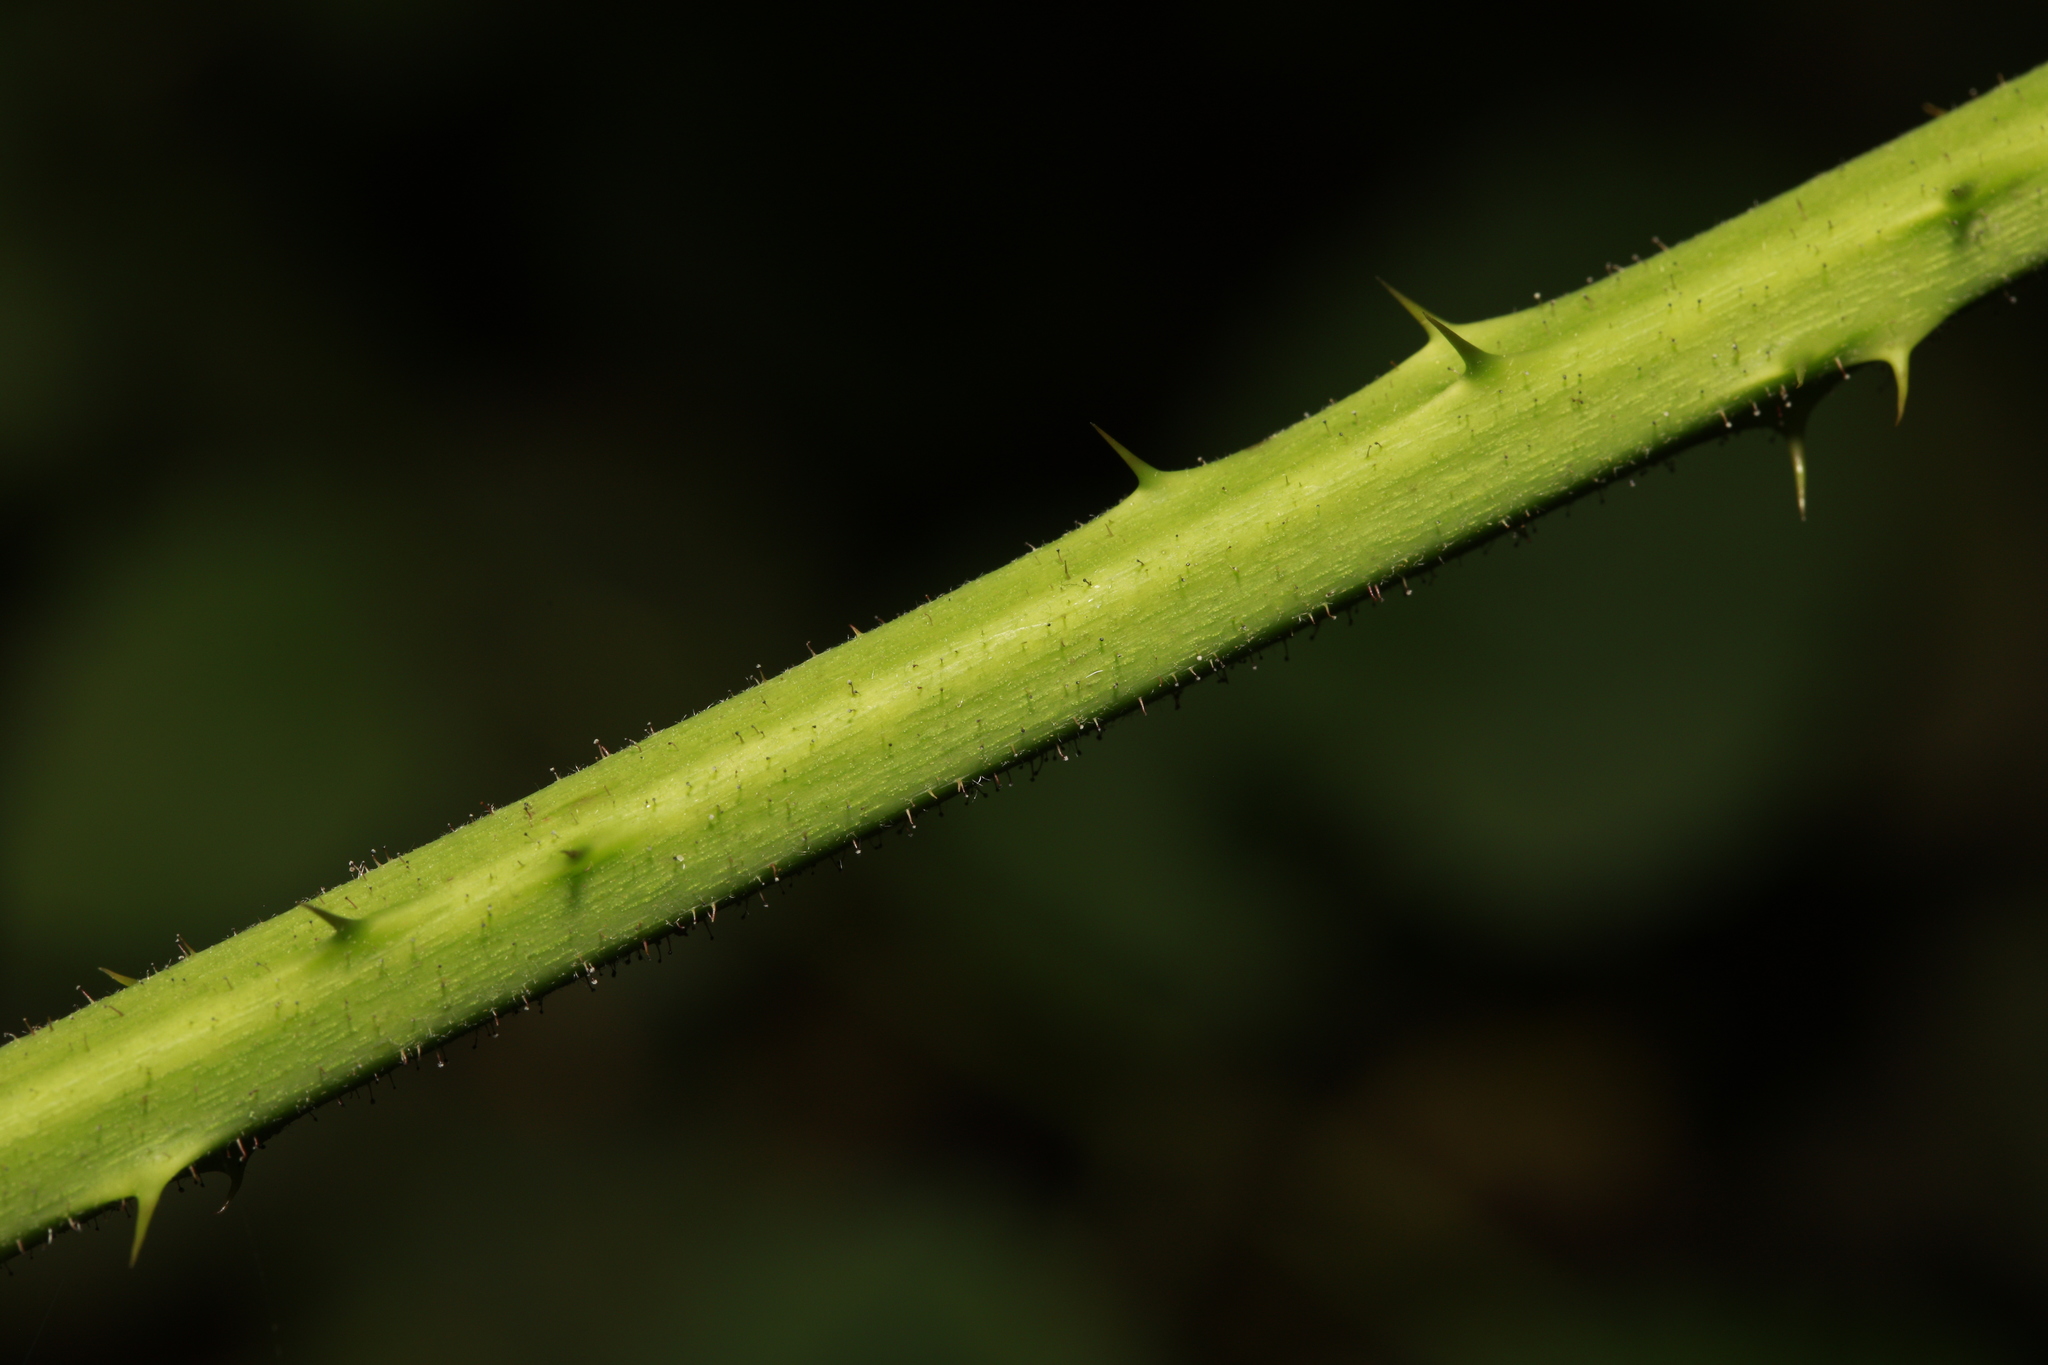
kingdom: Plantae
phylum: Tracheophyta
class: Magnoliopsida
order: Rosales
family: Rosaceae
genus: Rubus
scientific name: Rubus rufescens
